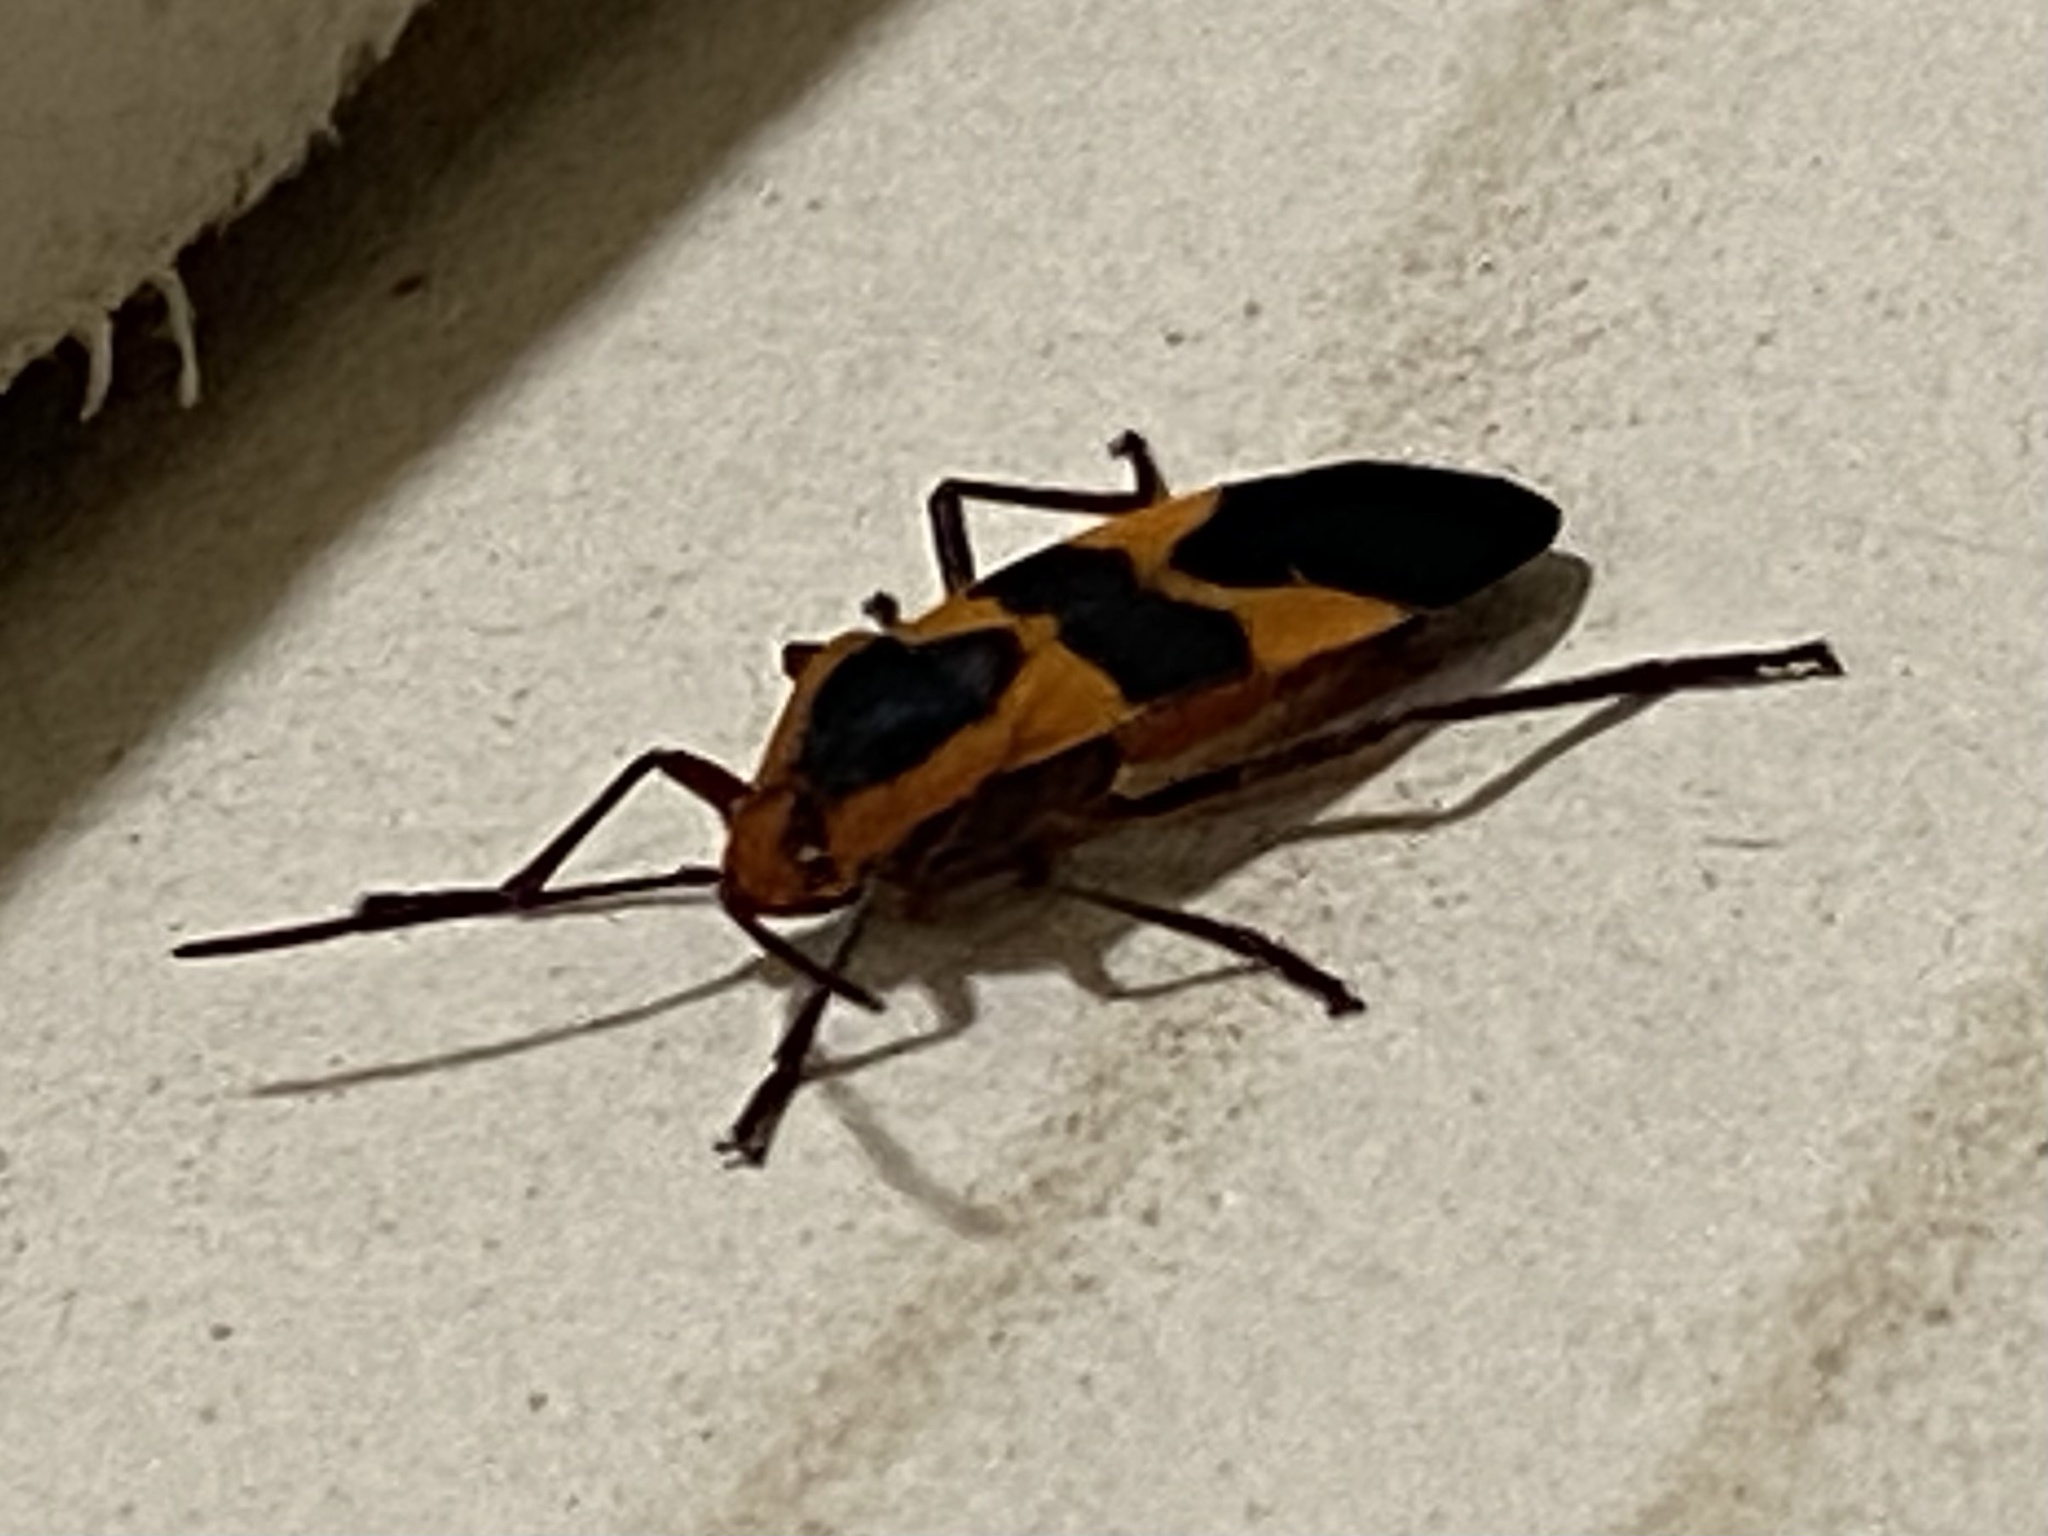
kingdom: Animalia
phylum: Arthropoda
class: Insecta
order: Hemiptera
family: Lygaeidae
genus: Oncopeltus
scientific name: Oncopeltus fasciatus
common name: Large milkweed bug
